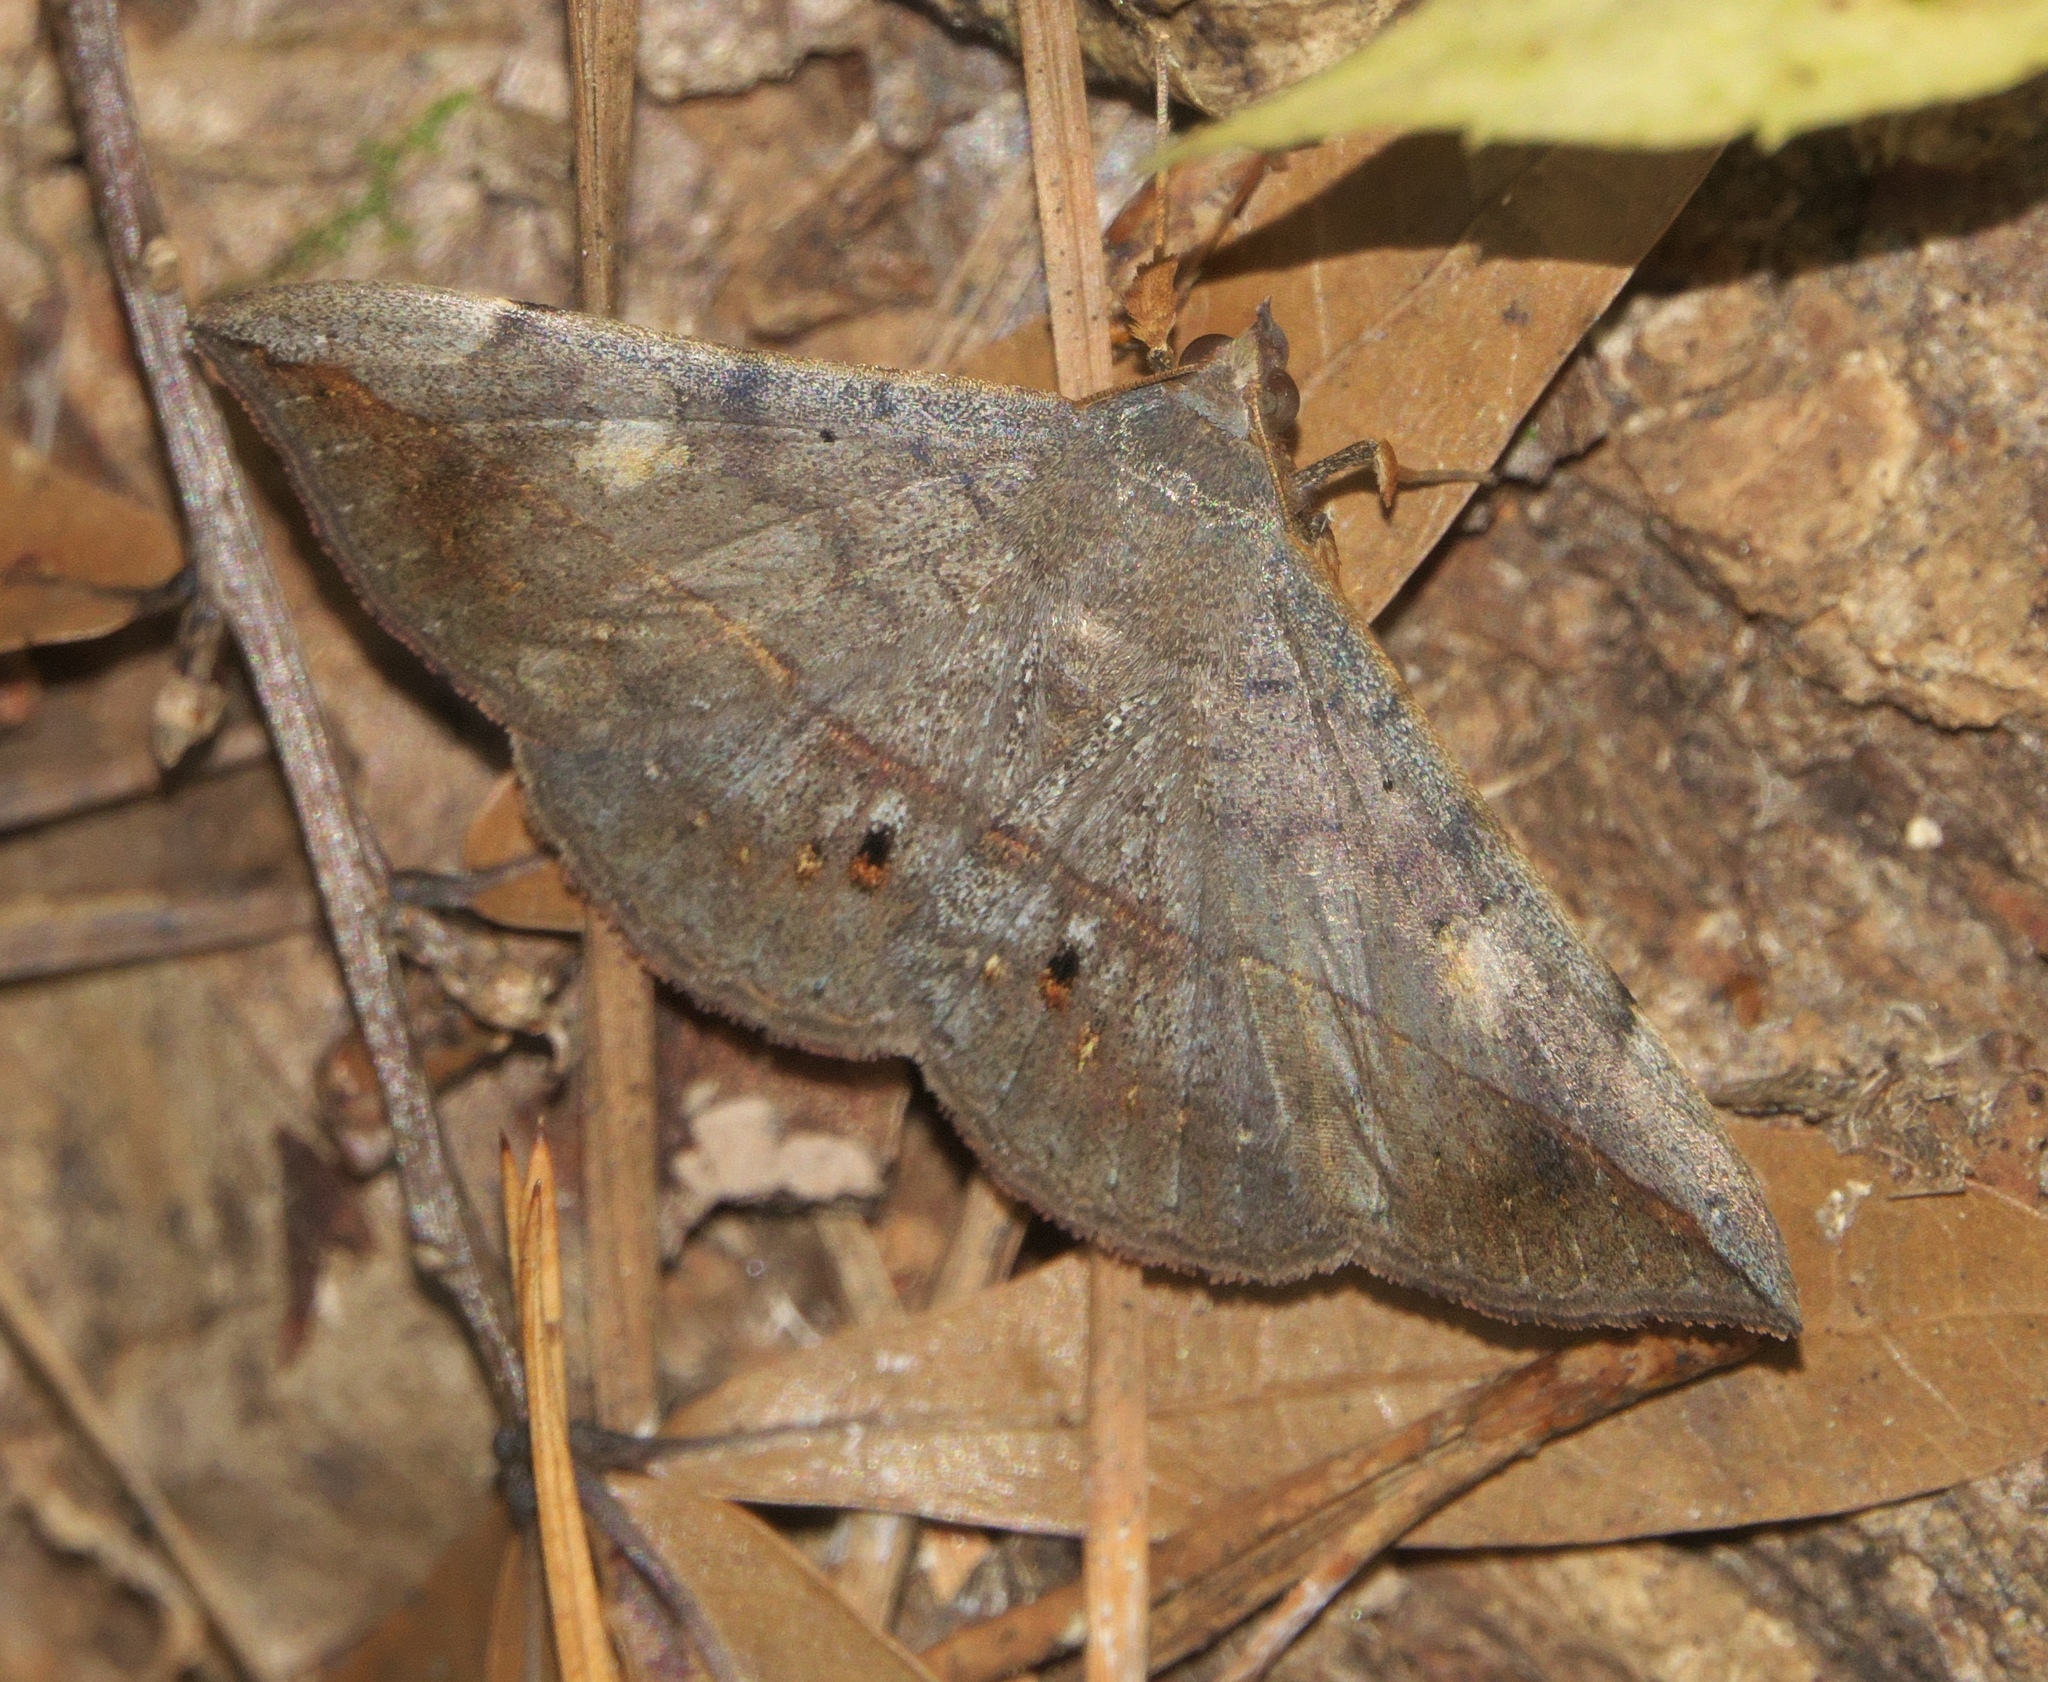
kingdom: Animalia
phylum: Arthropoda
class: Insecta
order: Lepidoptera
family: Erebidae
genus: Anticarsia
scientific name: Anticarsia gemmatalis
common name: Cutworm moth
